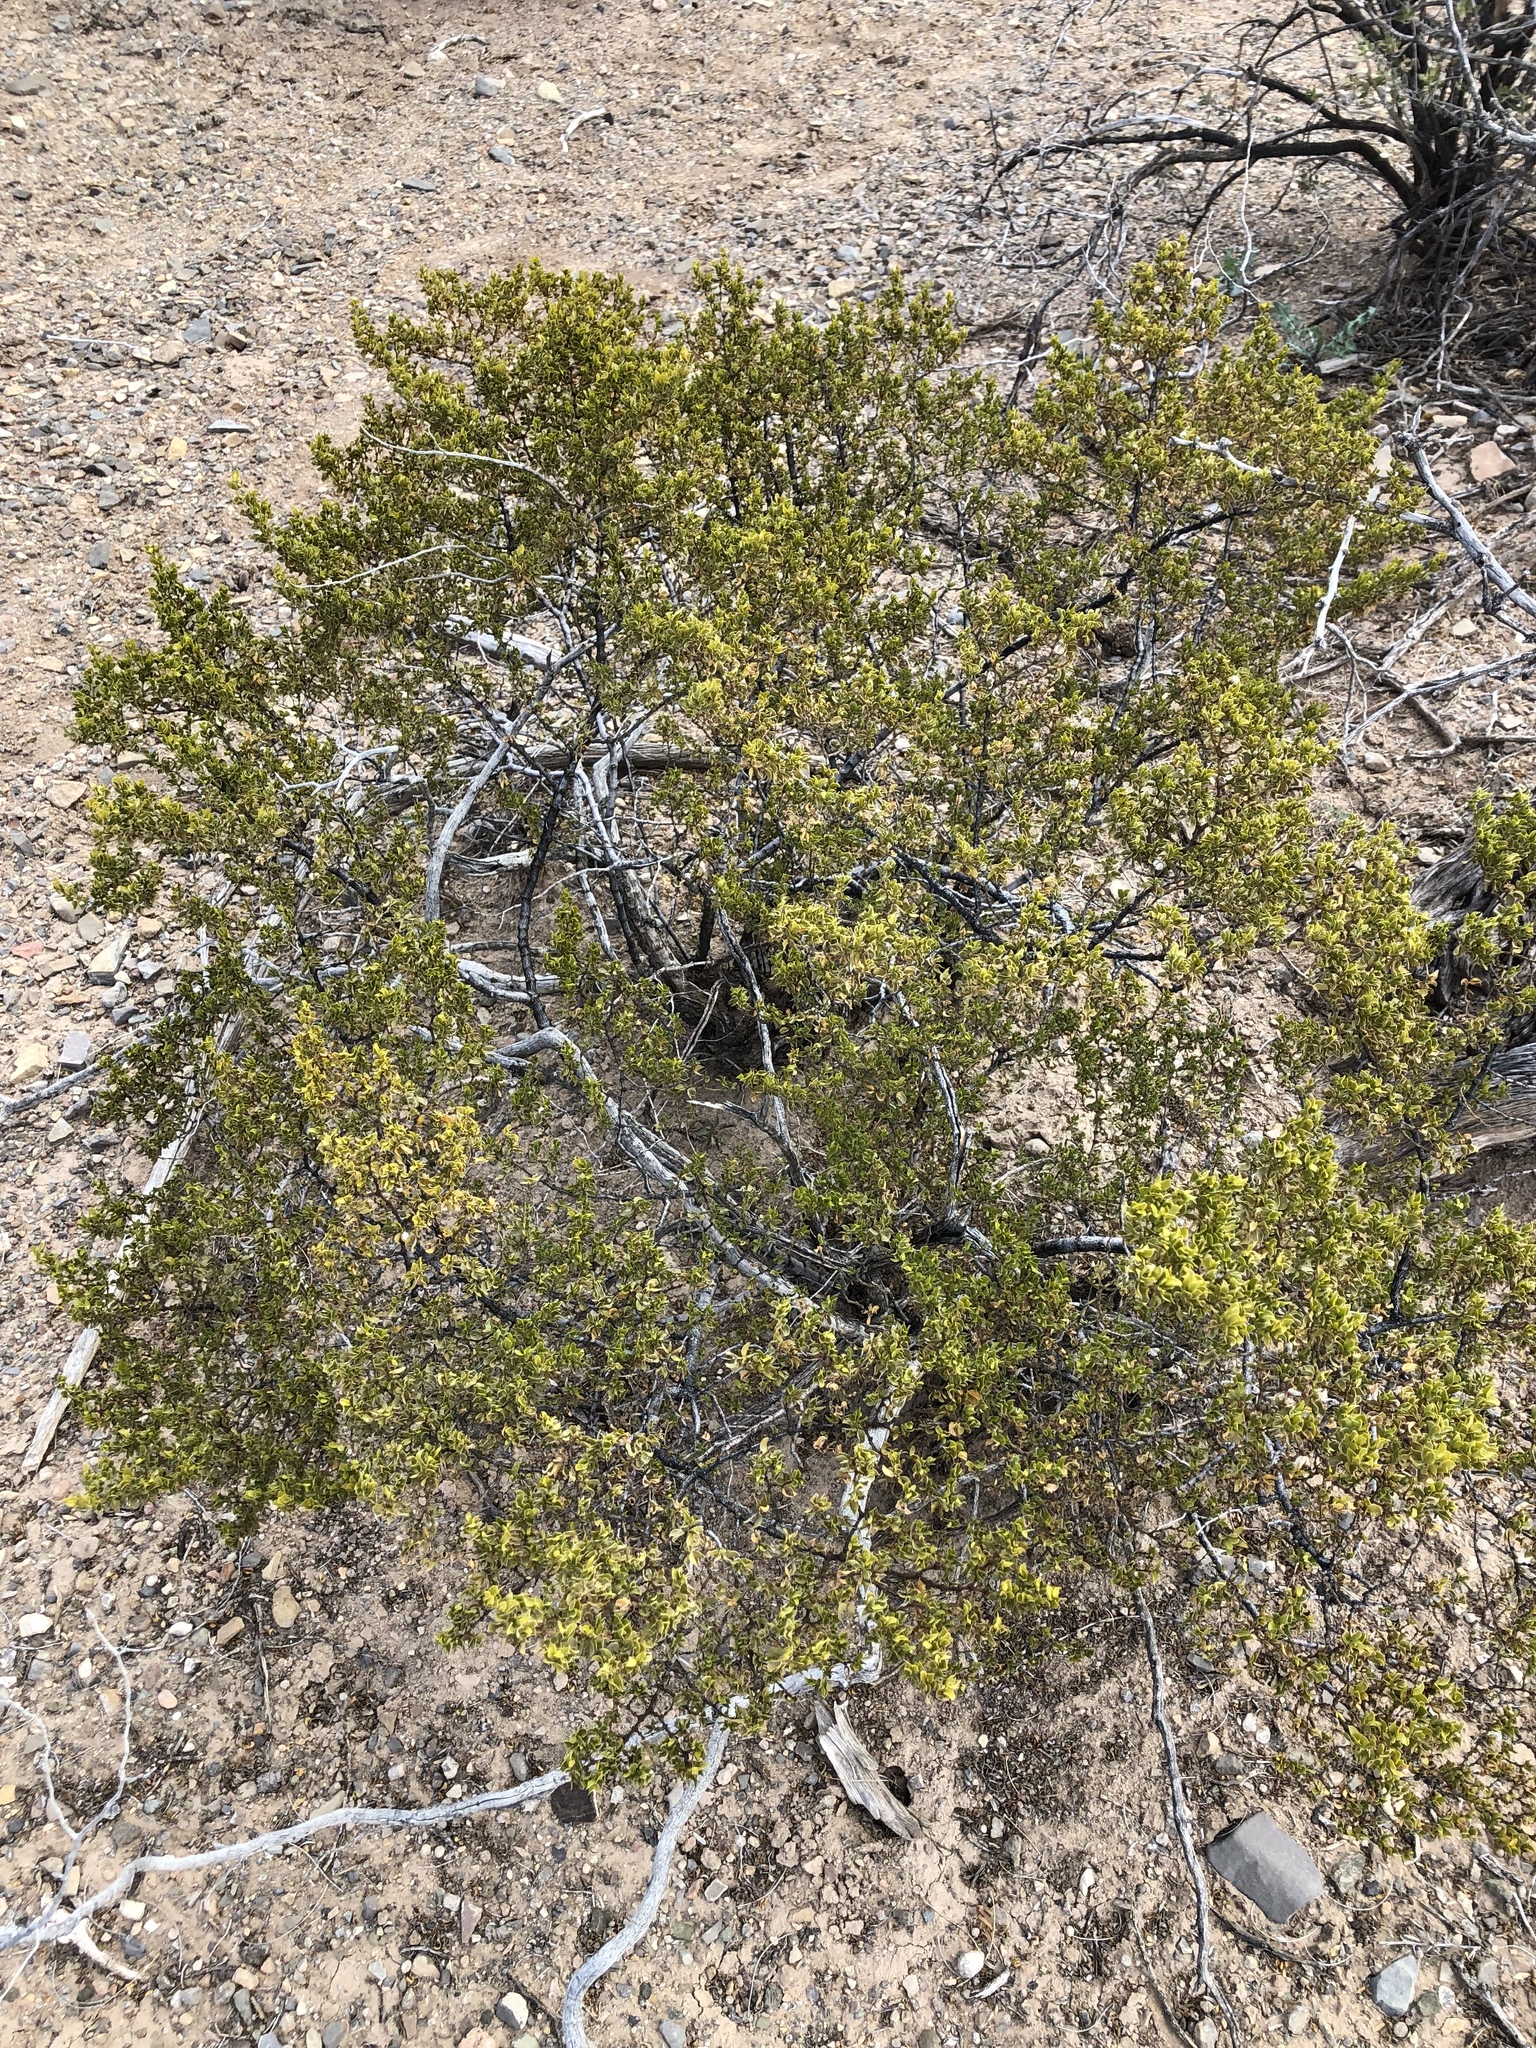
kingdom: Plantae
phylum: Tracheophyta
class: Magnoliopsida
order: Zygophyllales
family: Zygophyllaceae
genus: Larrea
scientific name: Larrea tridentata
